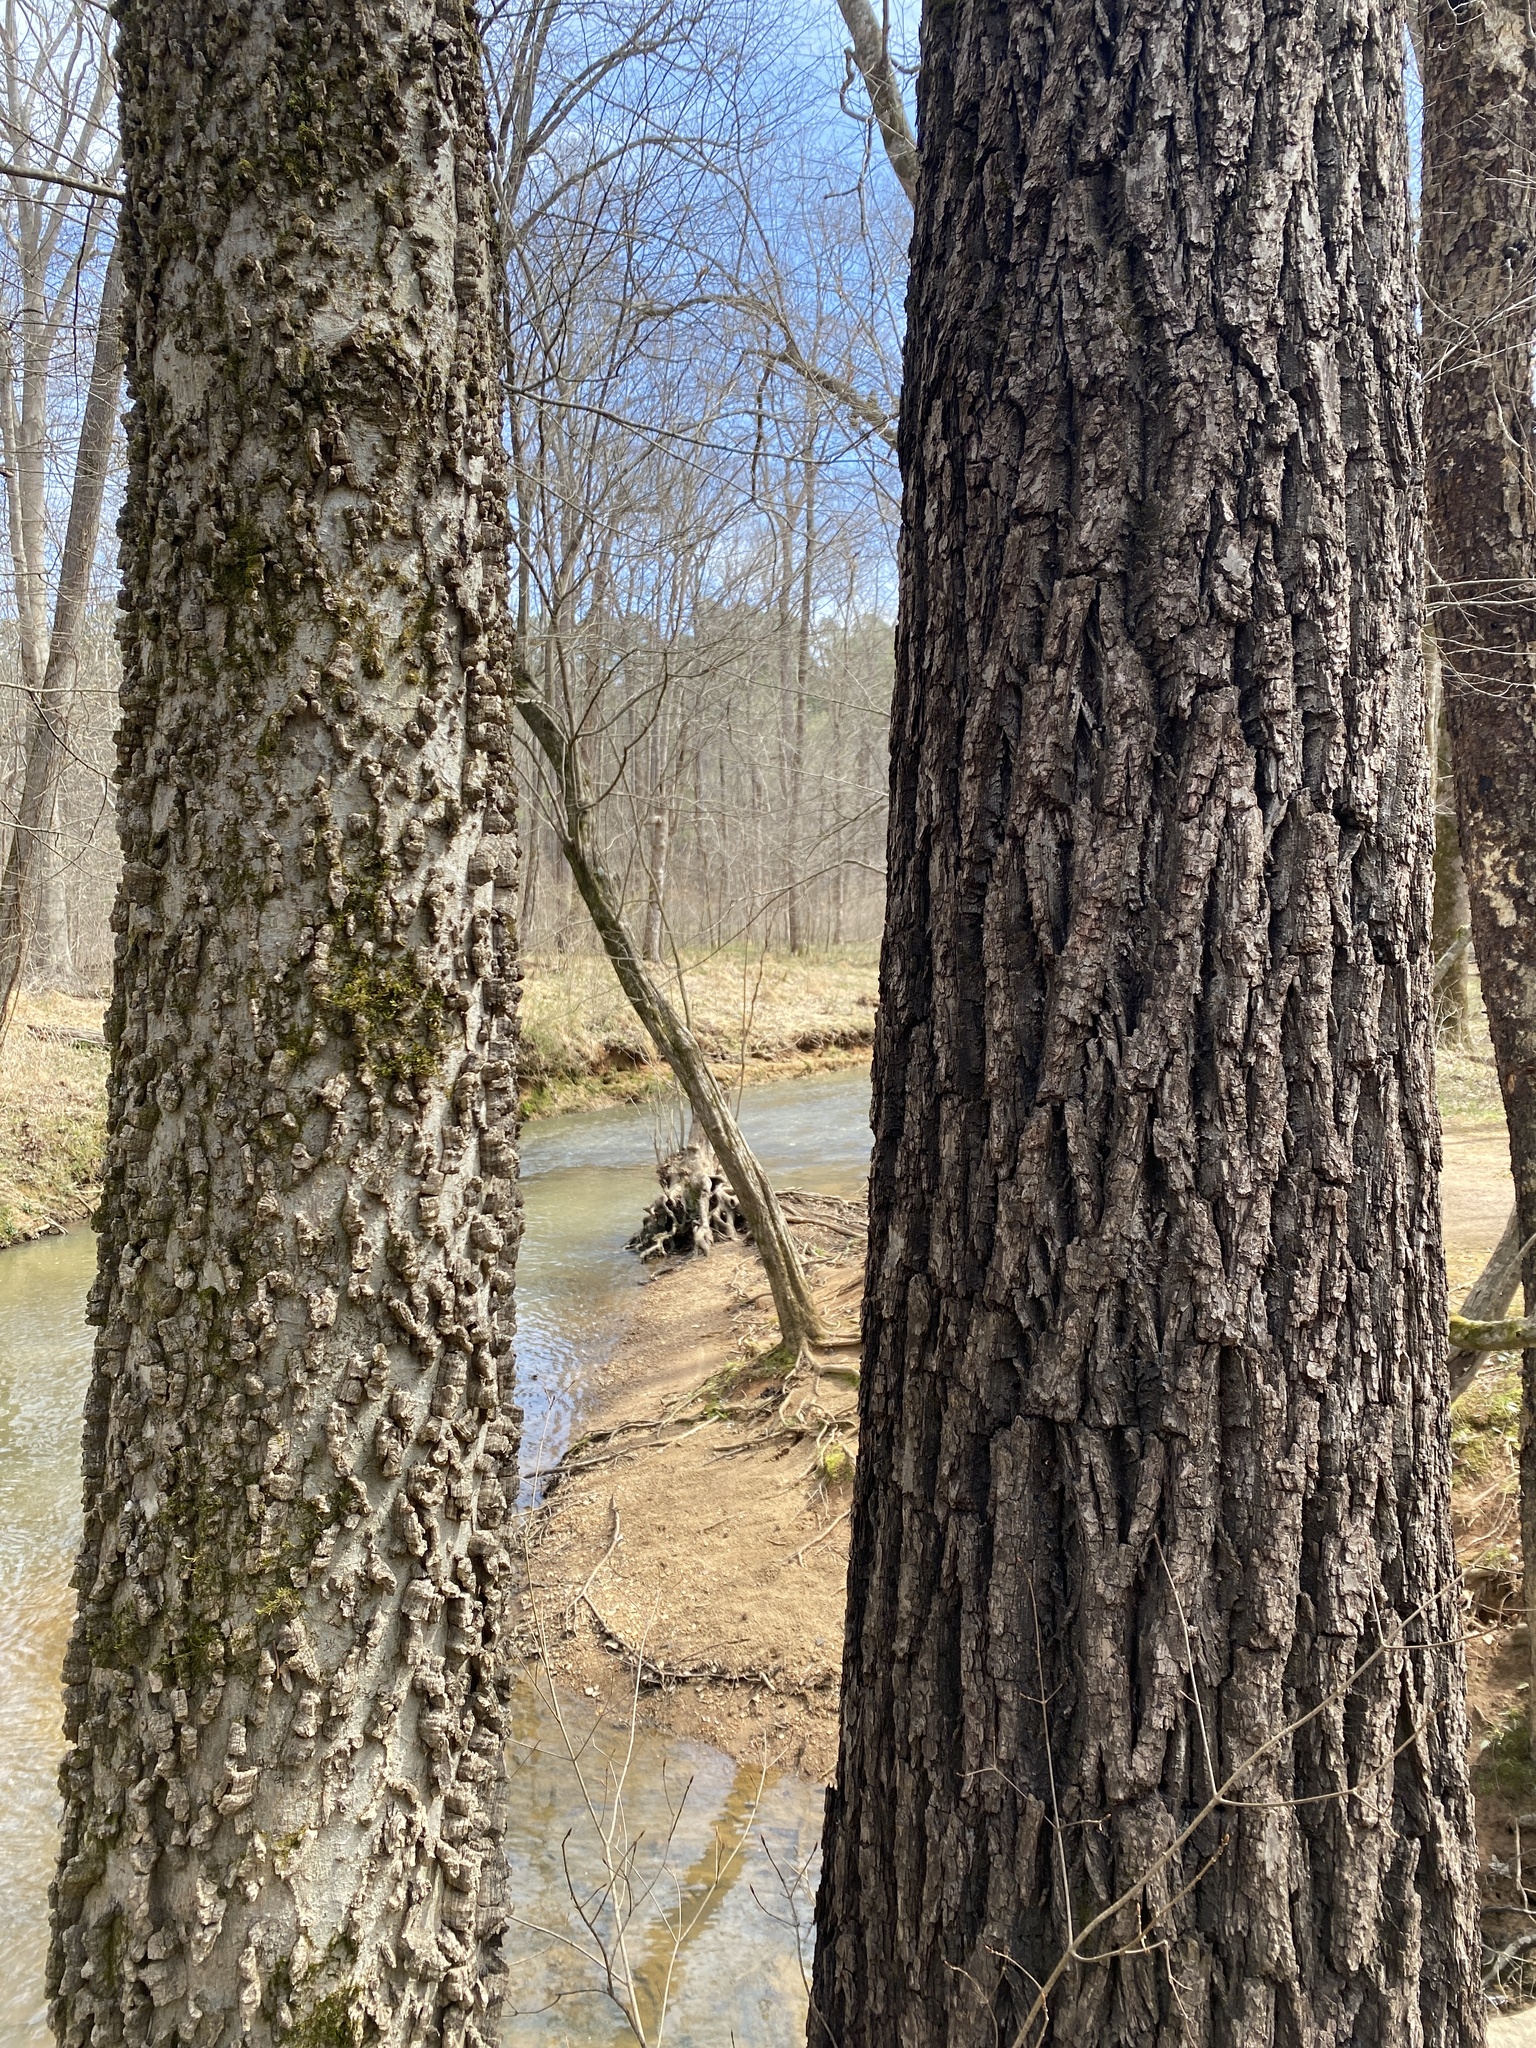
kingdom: Plantae
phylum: Tracheophyta
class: Magnoliopsida
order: Rosales
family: Cannabaceae
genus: Celtis
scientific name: Celtis laevigata
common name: Sugarberry
